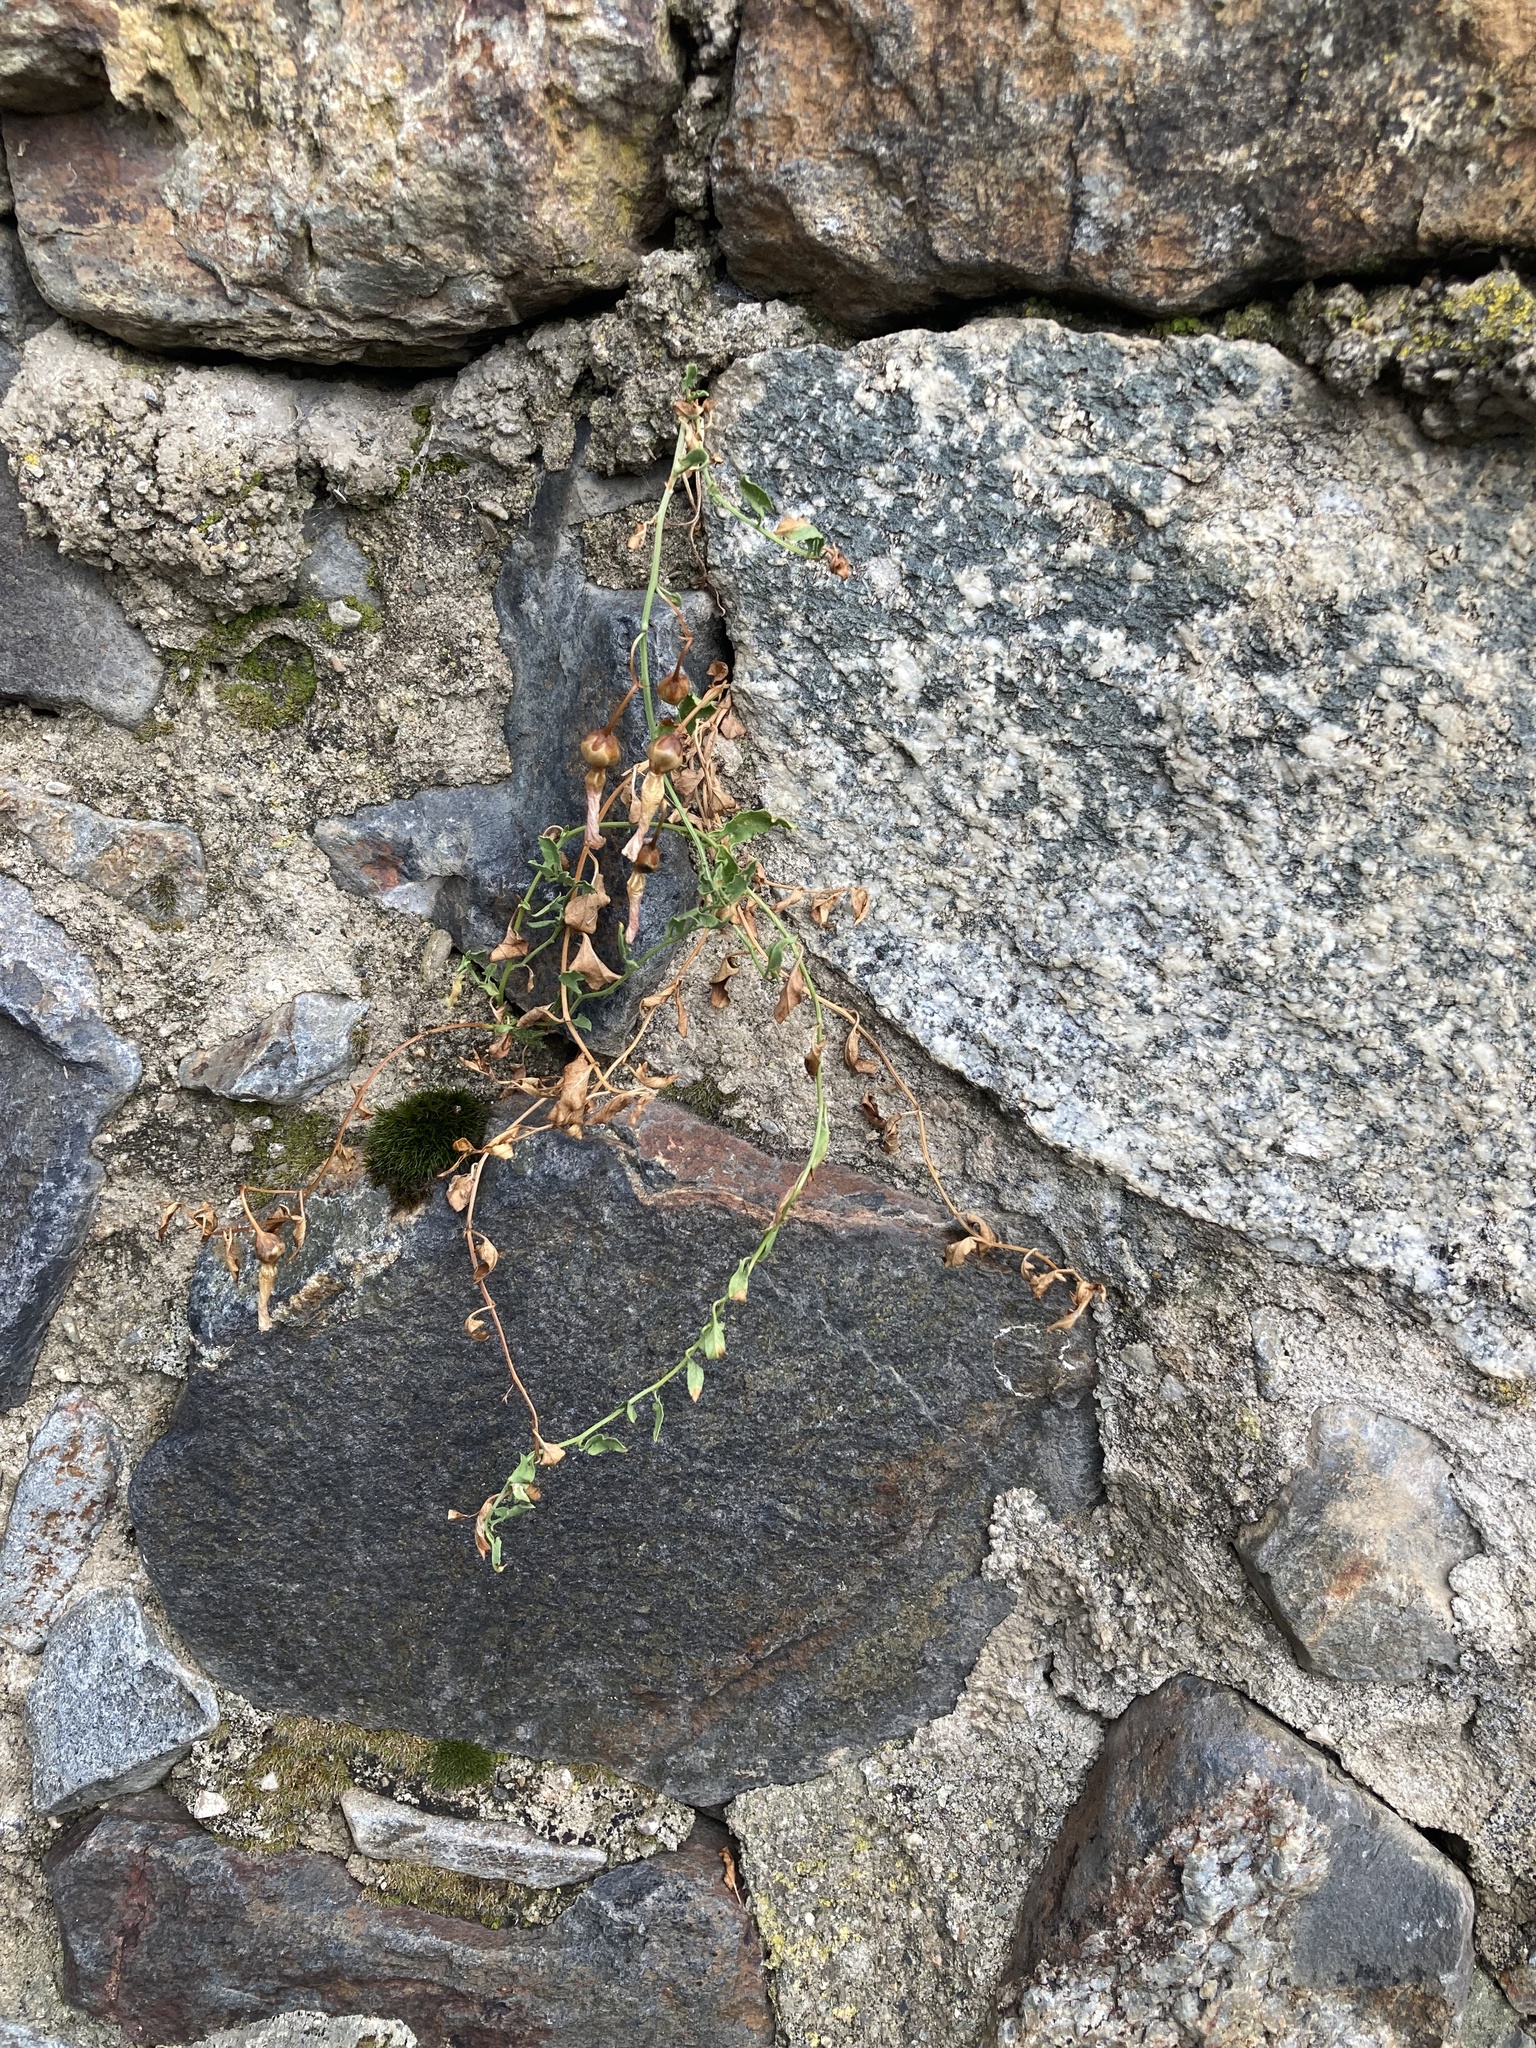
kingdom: Plantae
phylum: Tracheophyta
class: Magnoliopsida
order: Solanales
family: Convolvulaceae
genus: Convolvulus
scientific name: Convolvulus arvensis
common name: Field bindweed
